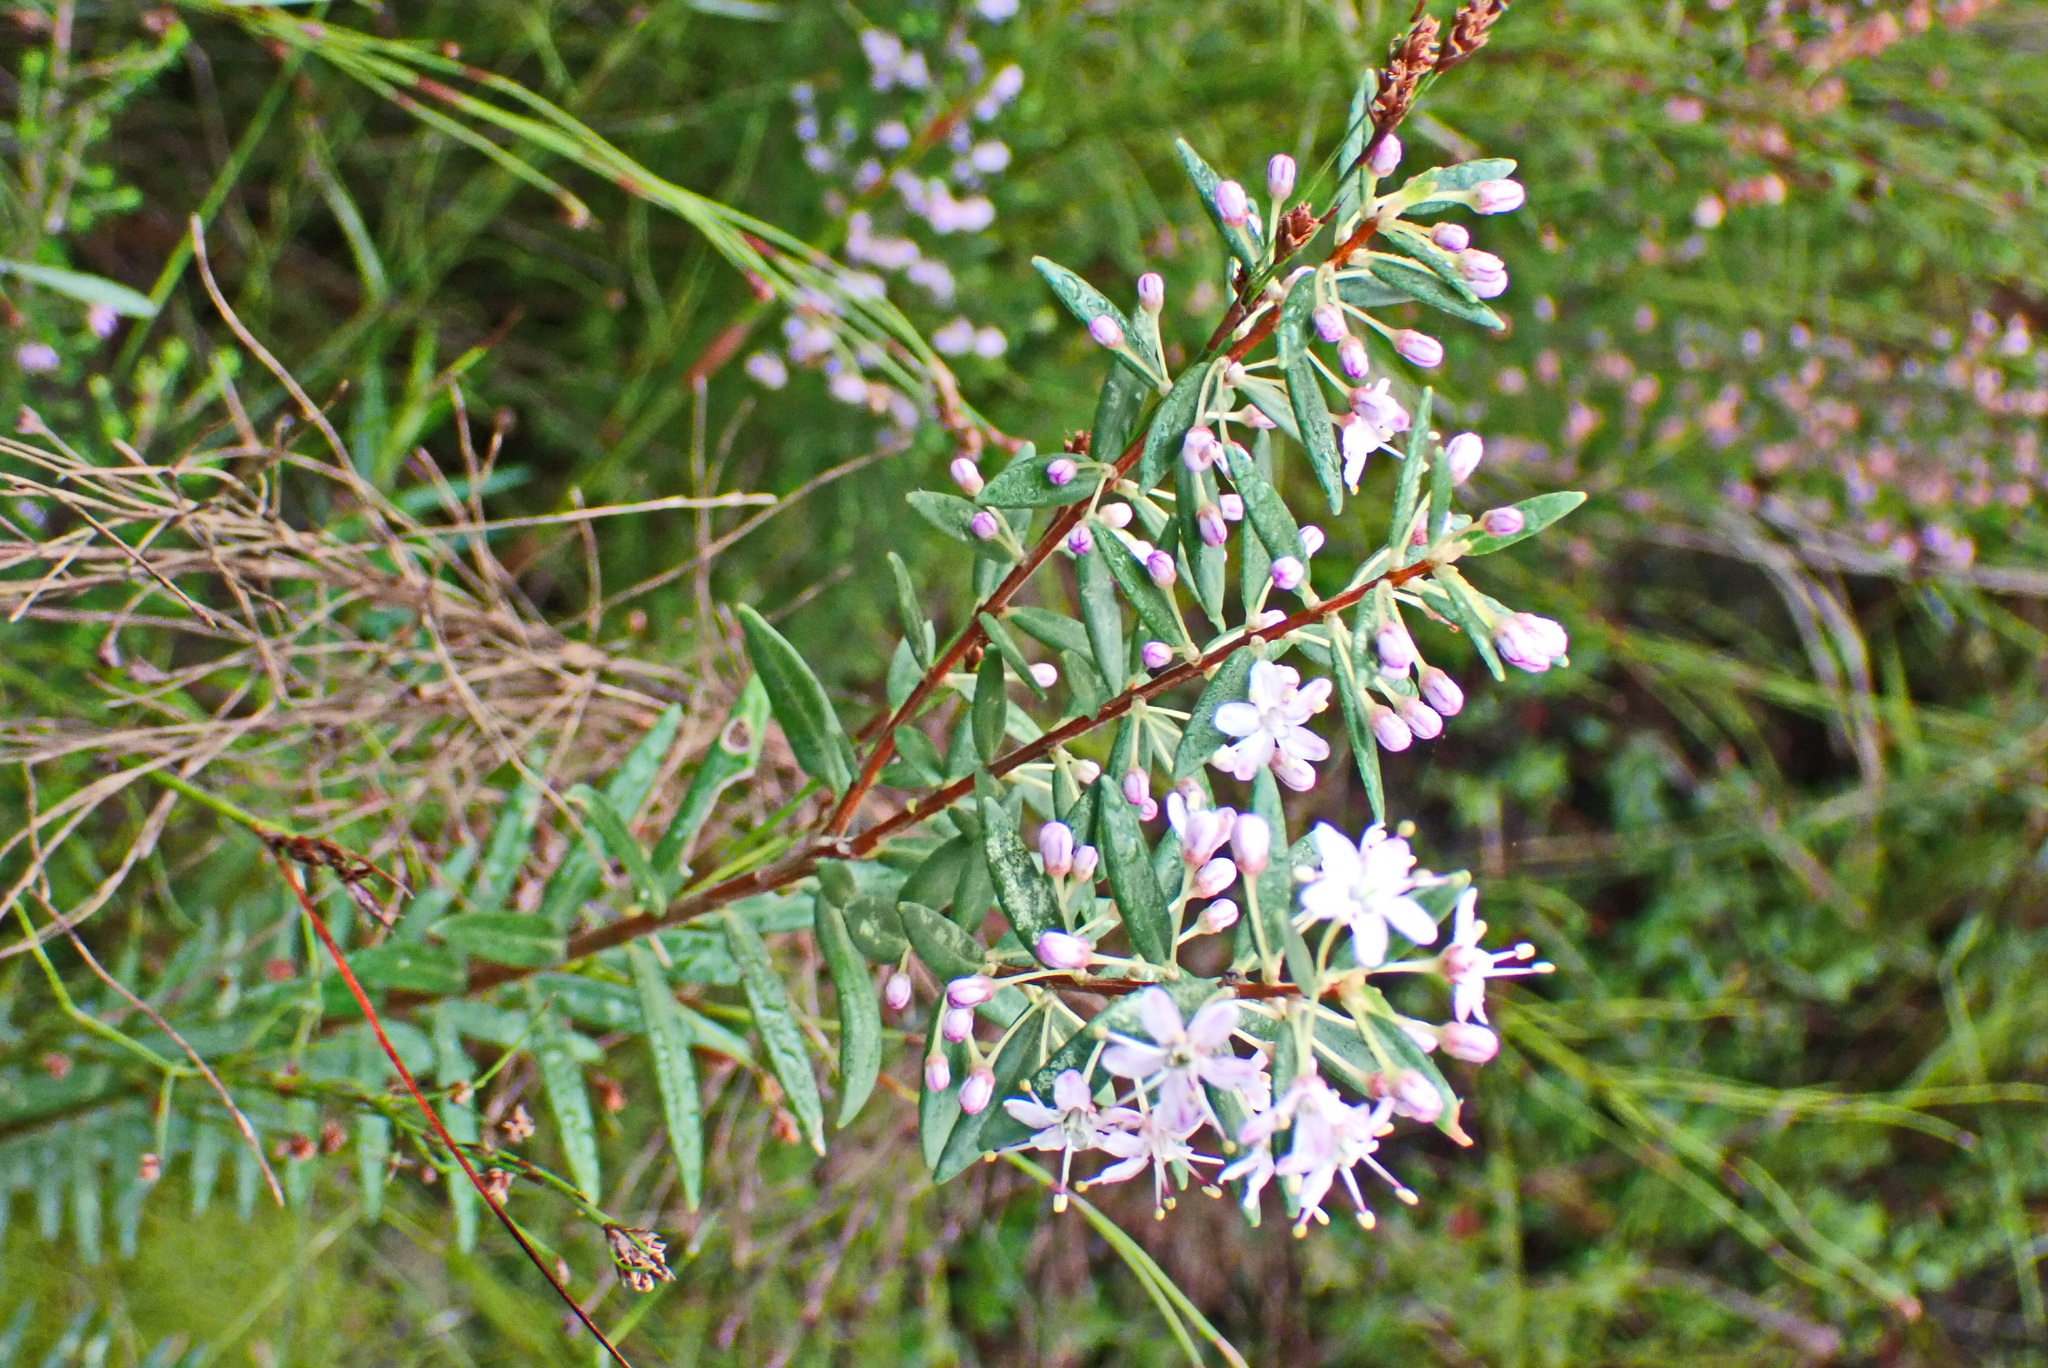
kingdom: Plantae
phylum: Tracheophyta
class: Magnoliopsida
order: Sapindales
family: Rutaceae
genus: Agathosma
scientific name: Agathosma ovata
